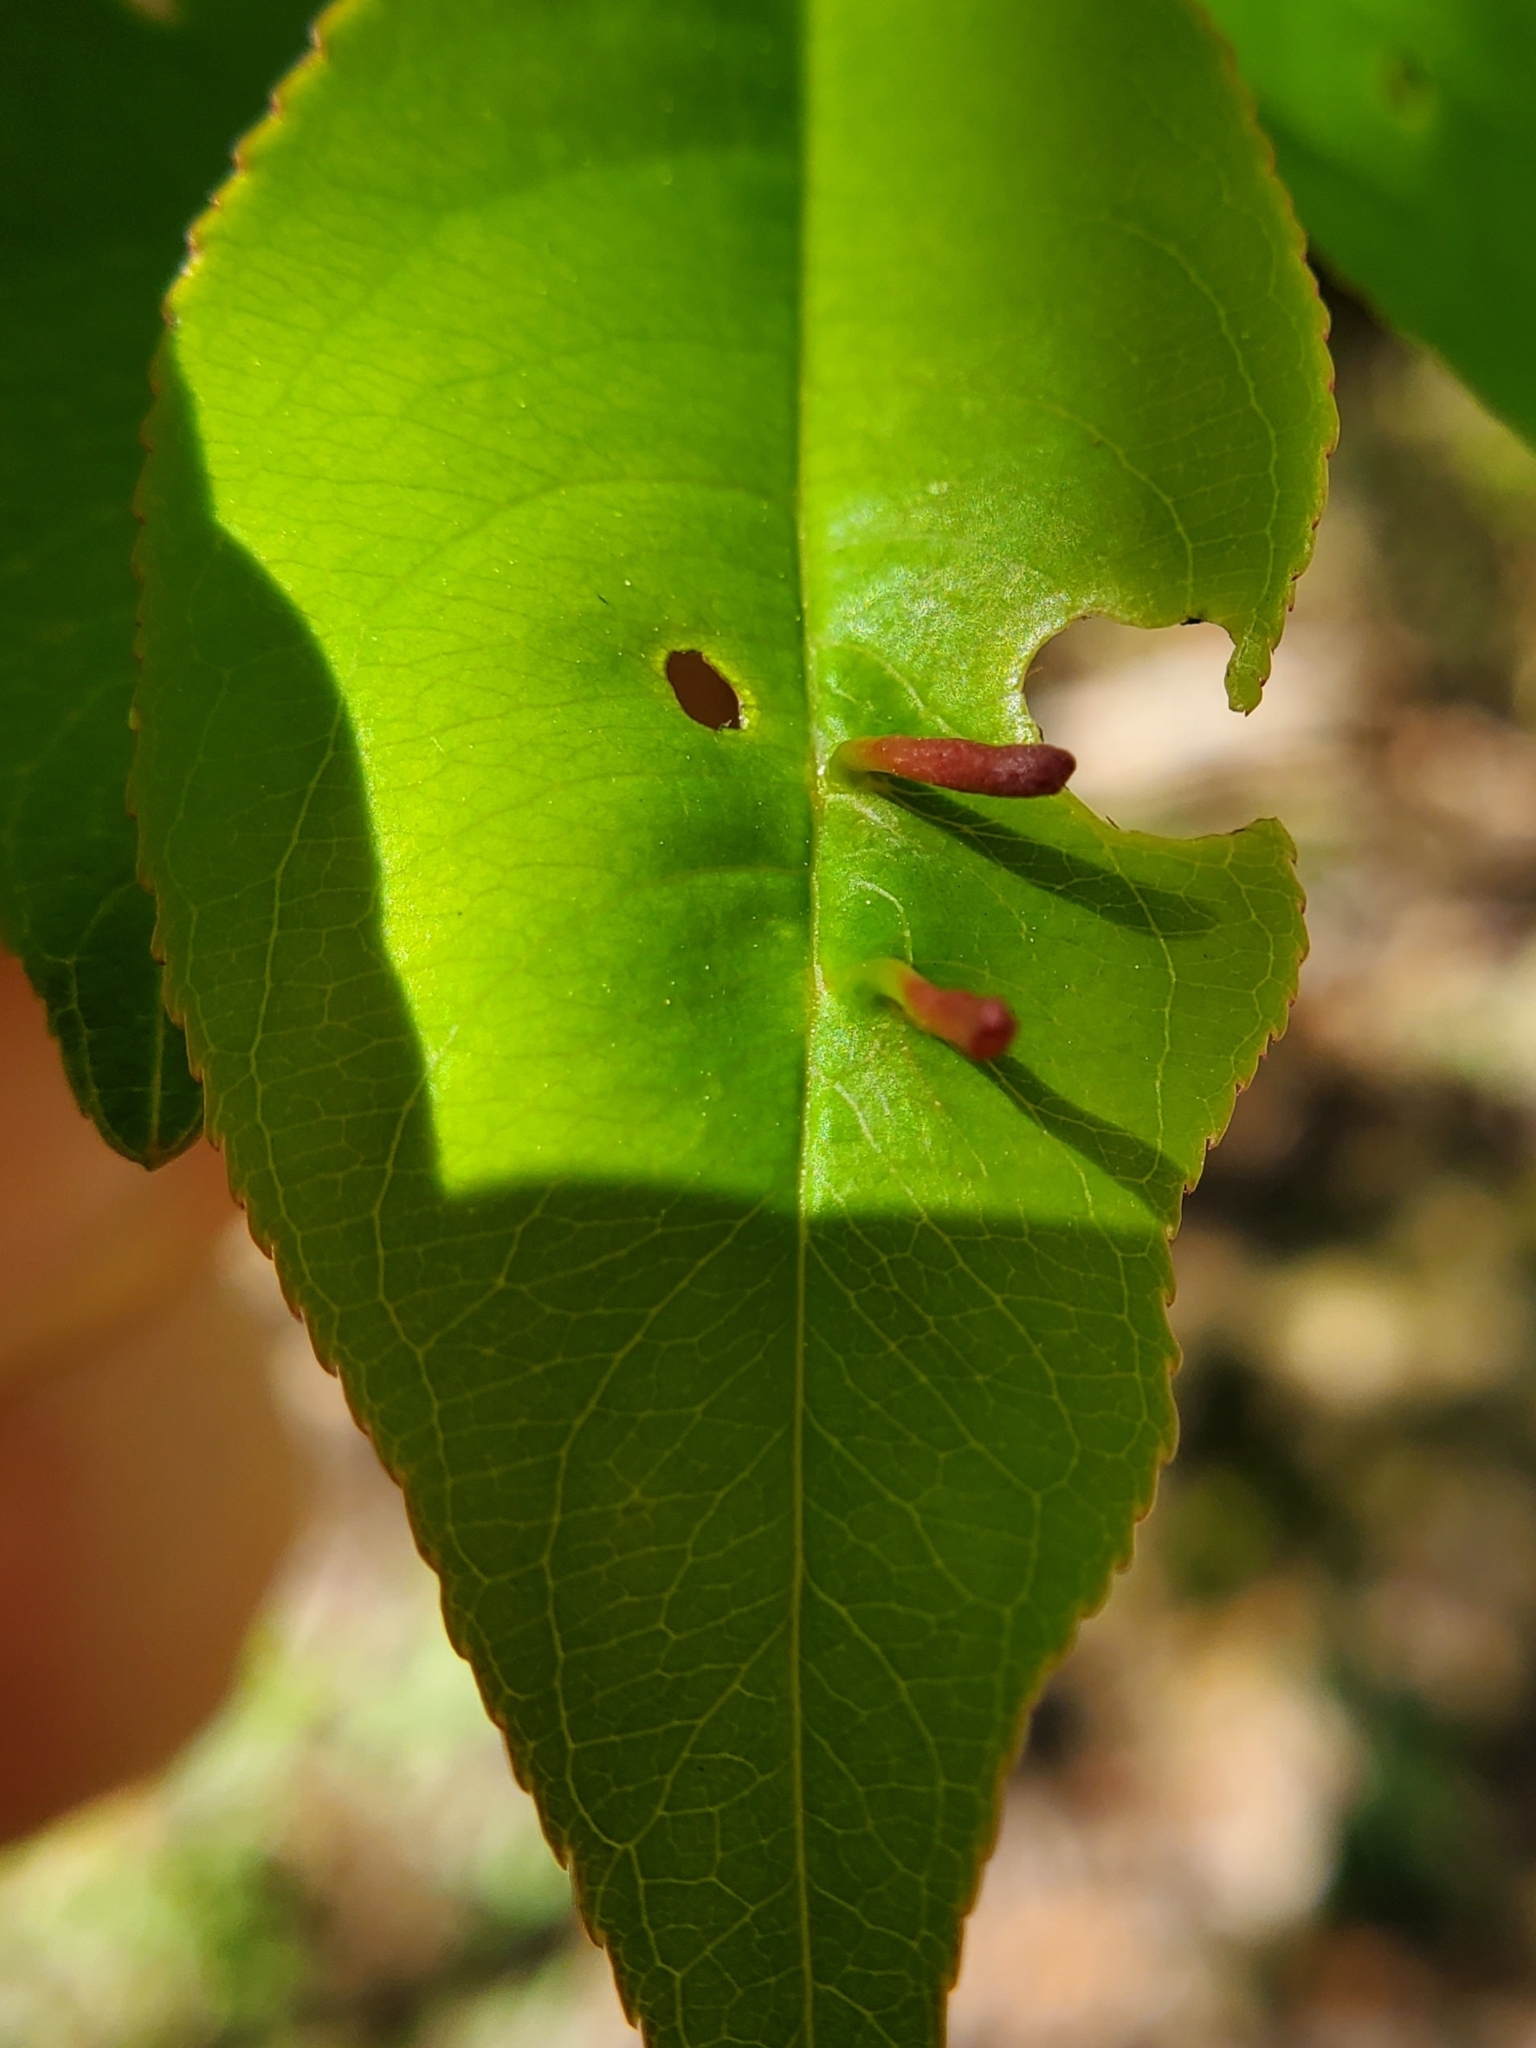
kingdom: Animalia
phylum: Arthropoda
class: Arachnida
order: Trombidiformes
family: Eriophyidae
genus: Eriophyes
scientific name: Eriophyes
